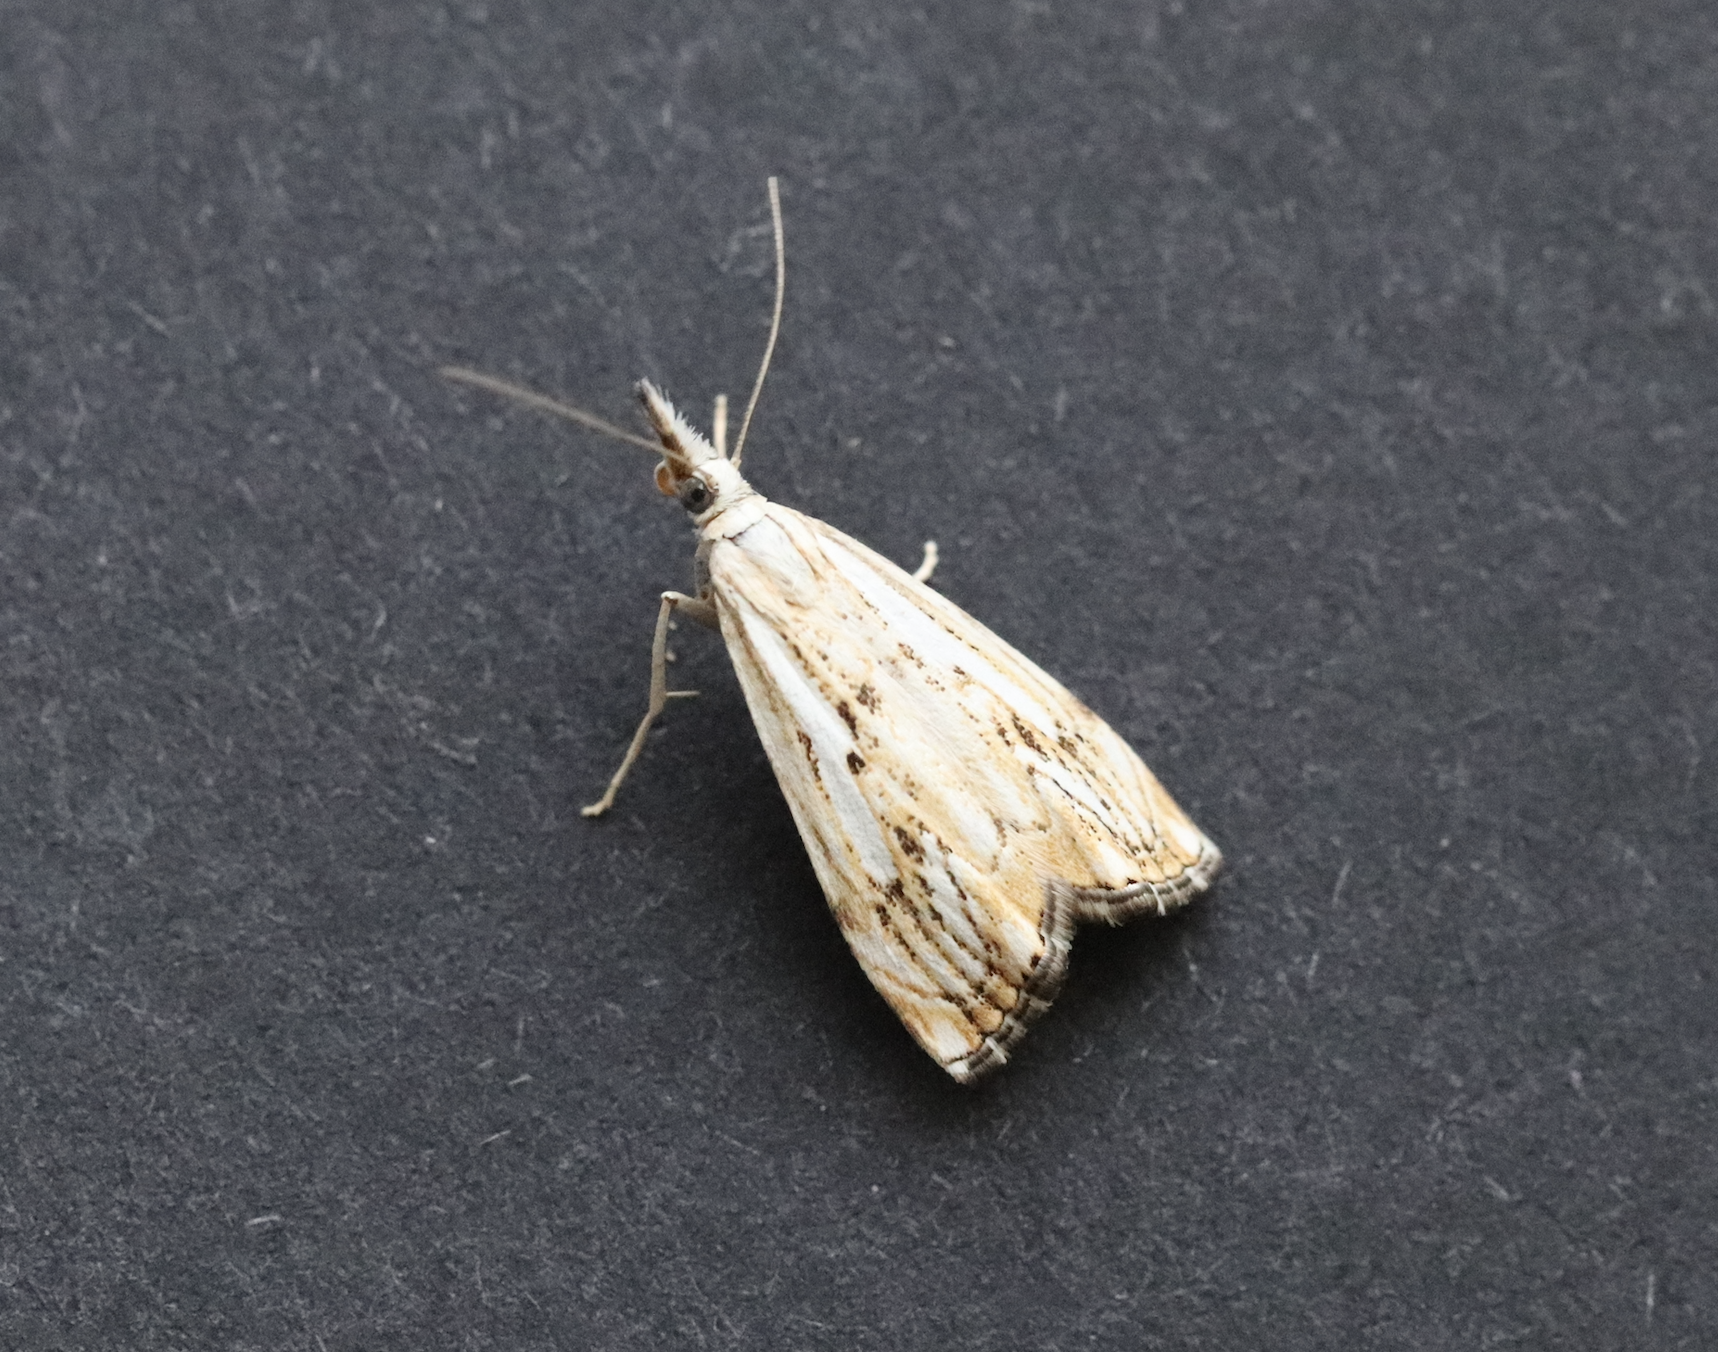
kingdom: Animalia
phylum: Arthropoda
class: Insecta
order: Lepidoptera
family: Crambidae
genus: Catoptria
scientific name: Catoptria falsella
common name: Chequered grass-veneer
